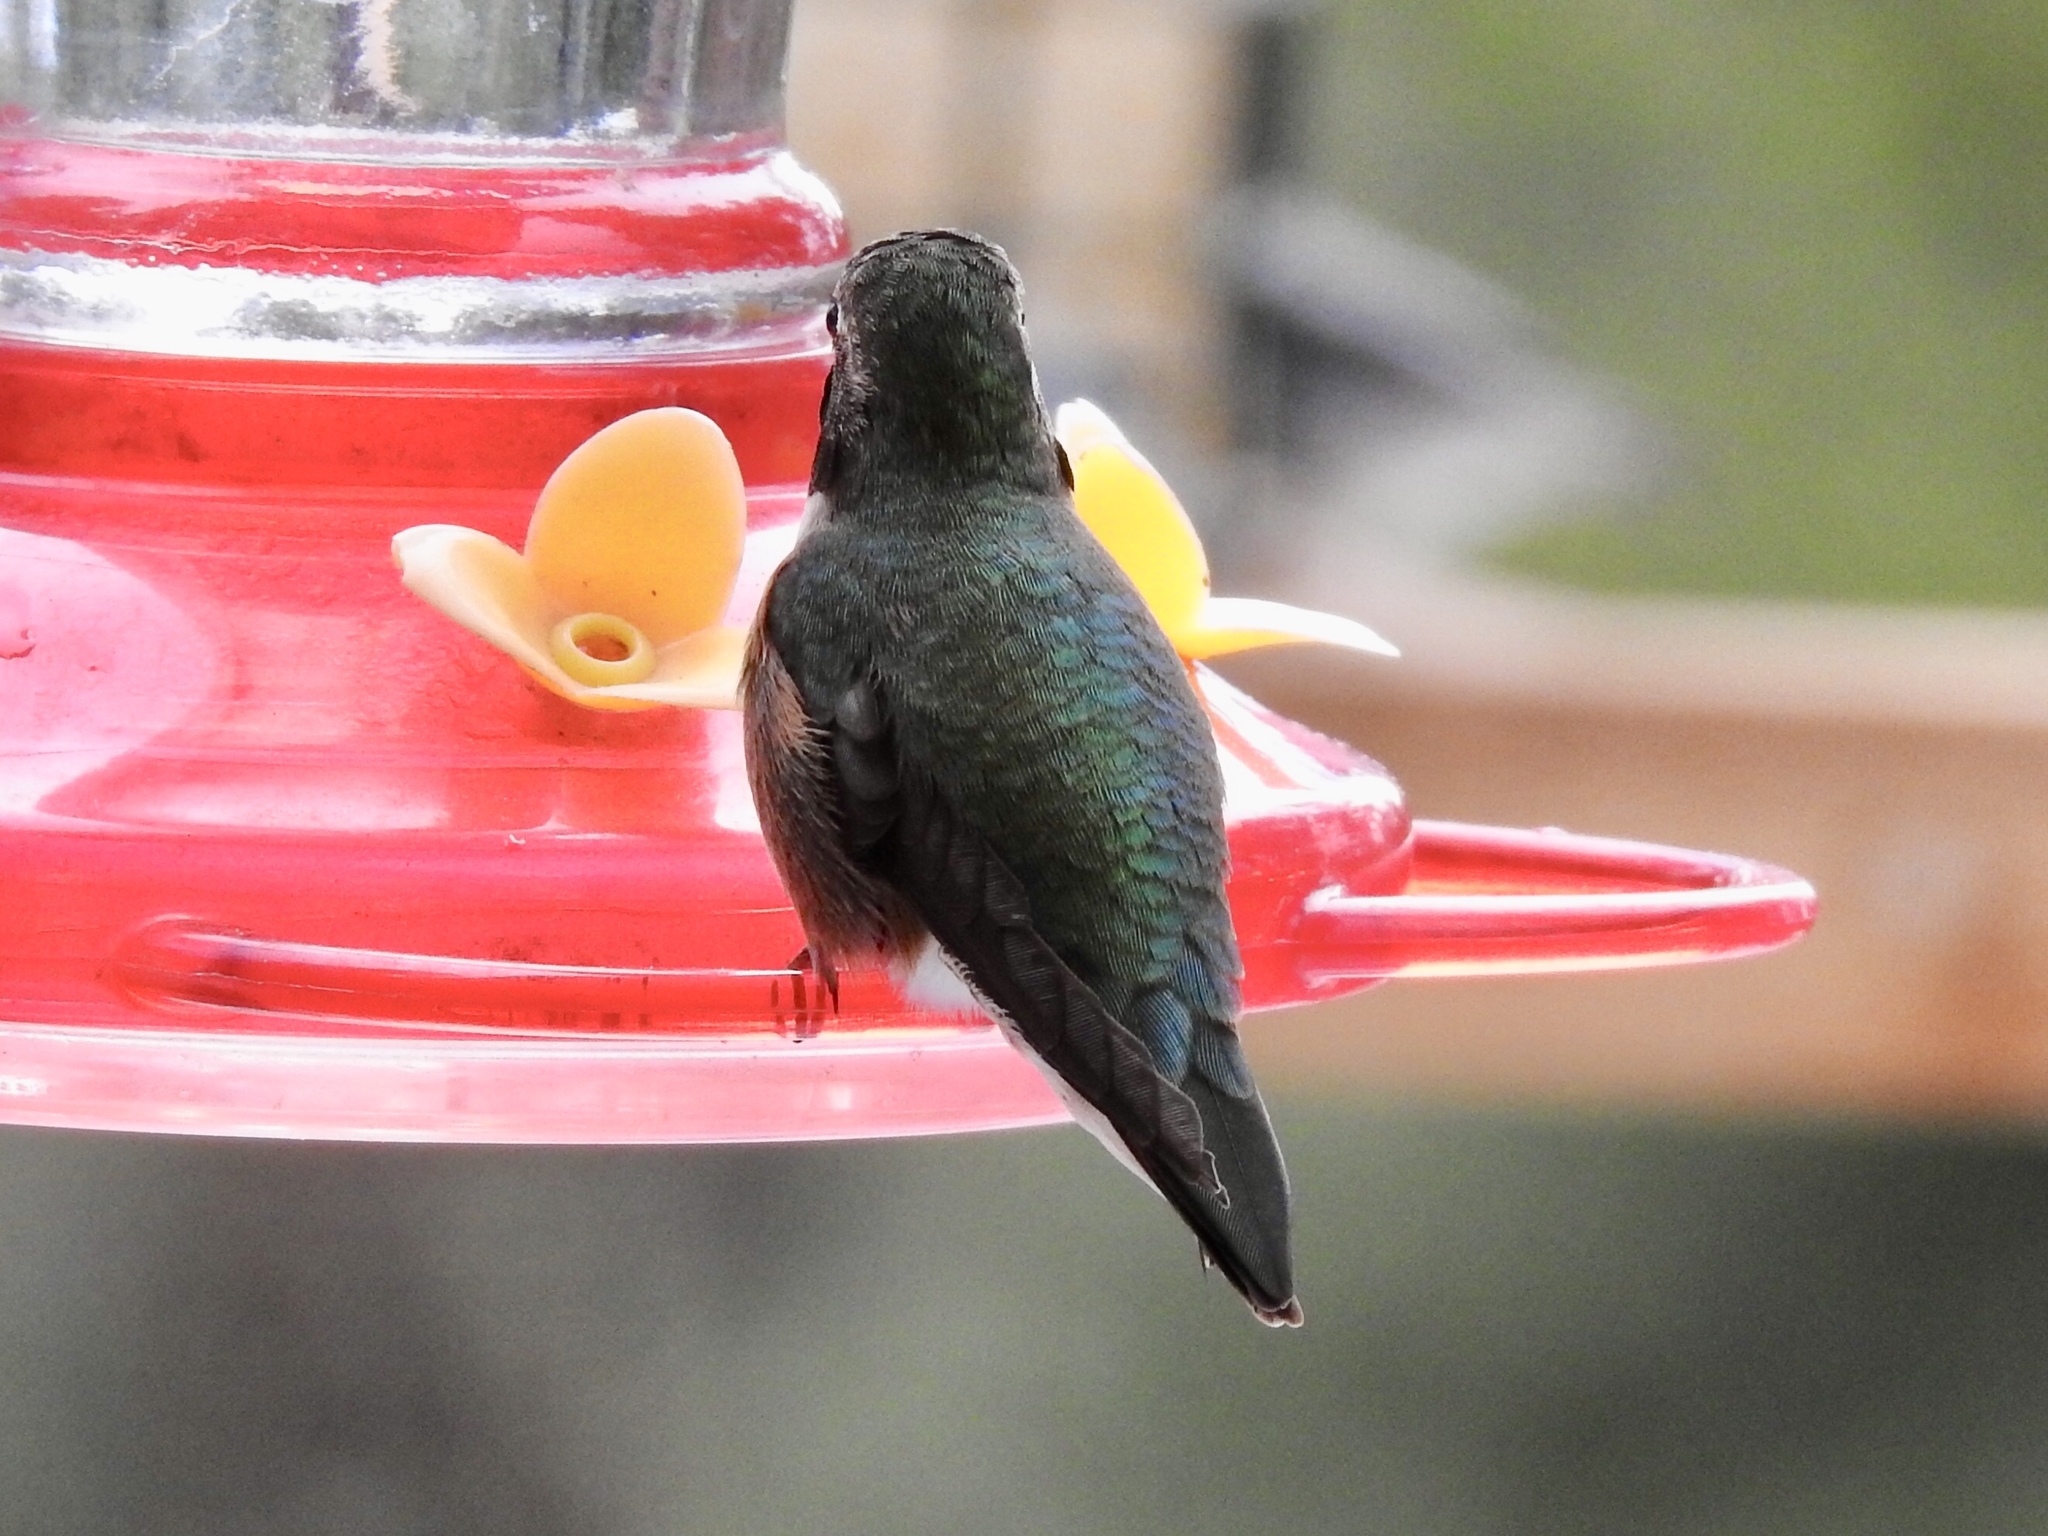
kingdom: Animalia
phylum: Chordata
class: Aves
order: Apodiformes
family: Trochilidae
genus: Selasphorus
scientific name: Selasphorus platycercus
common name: Broad-tailed hummingbird
